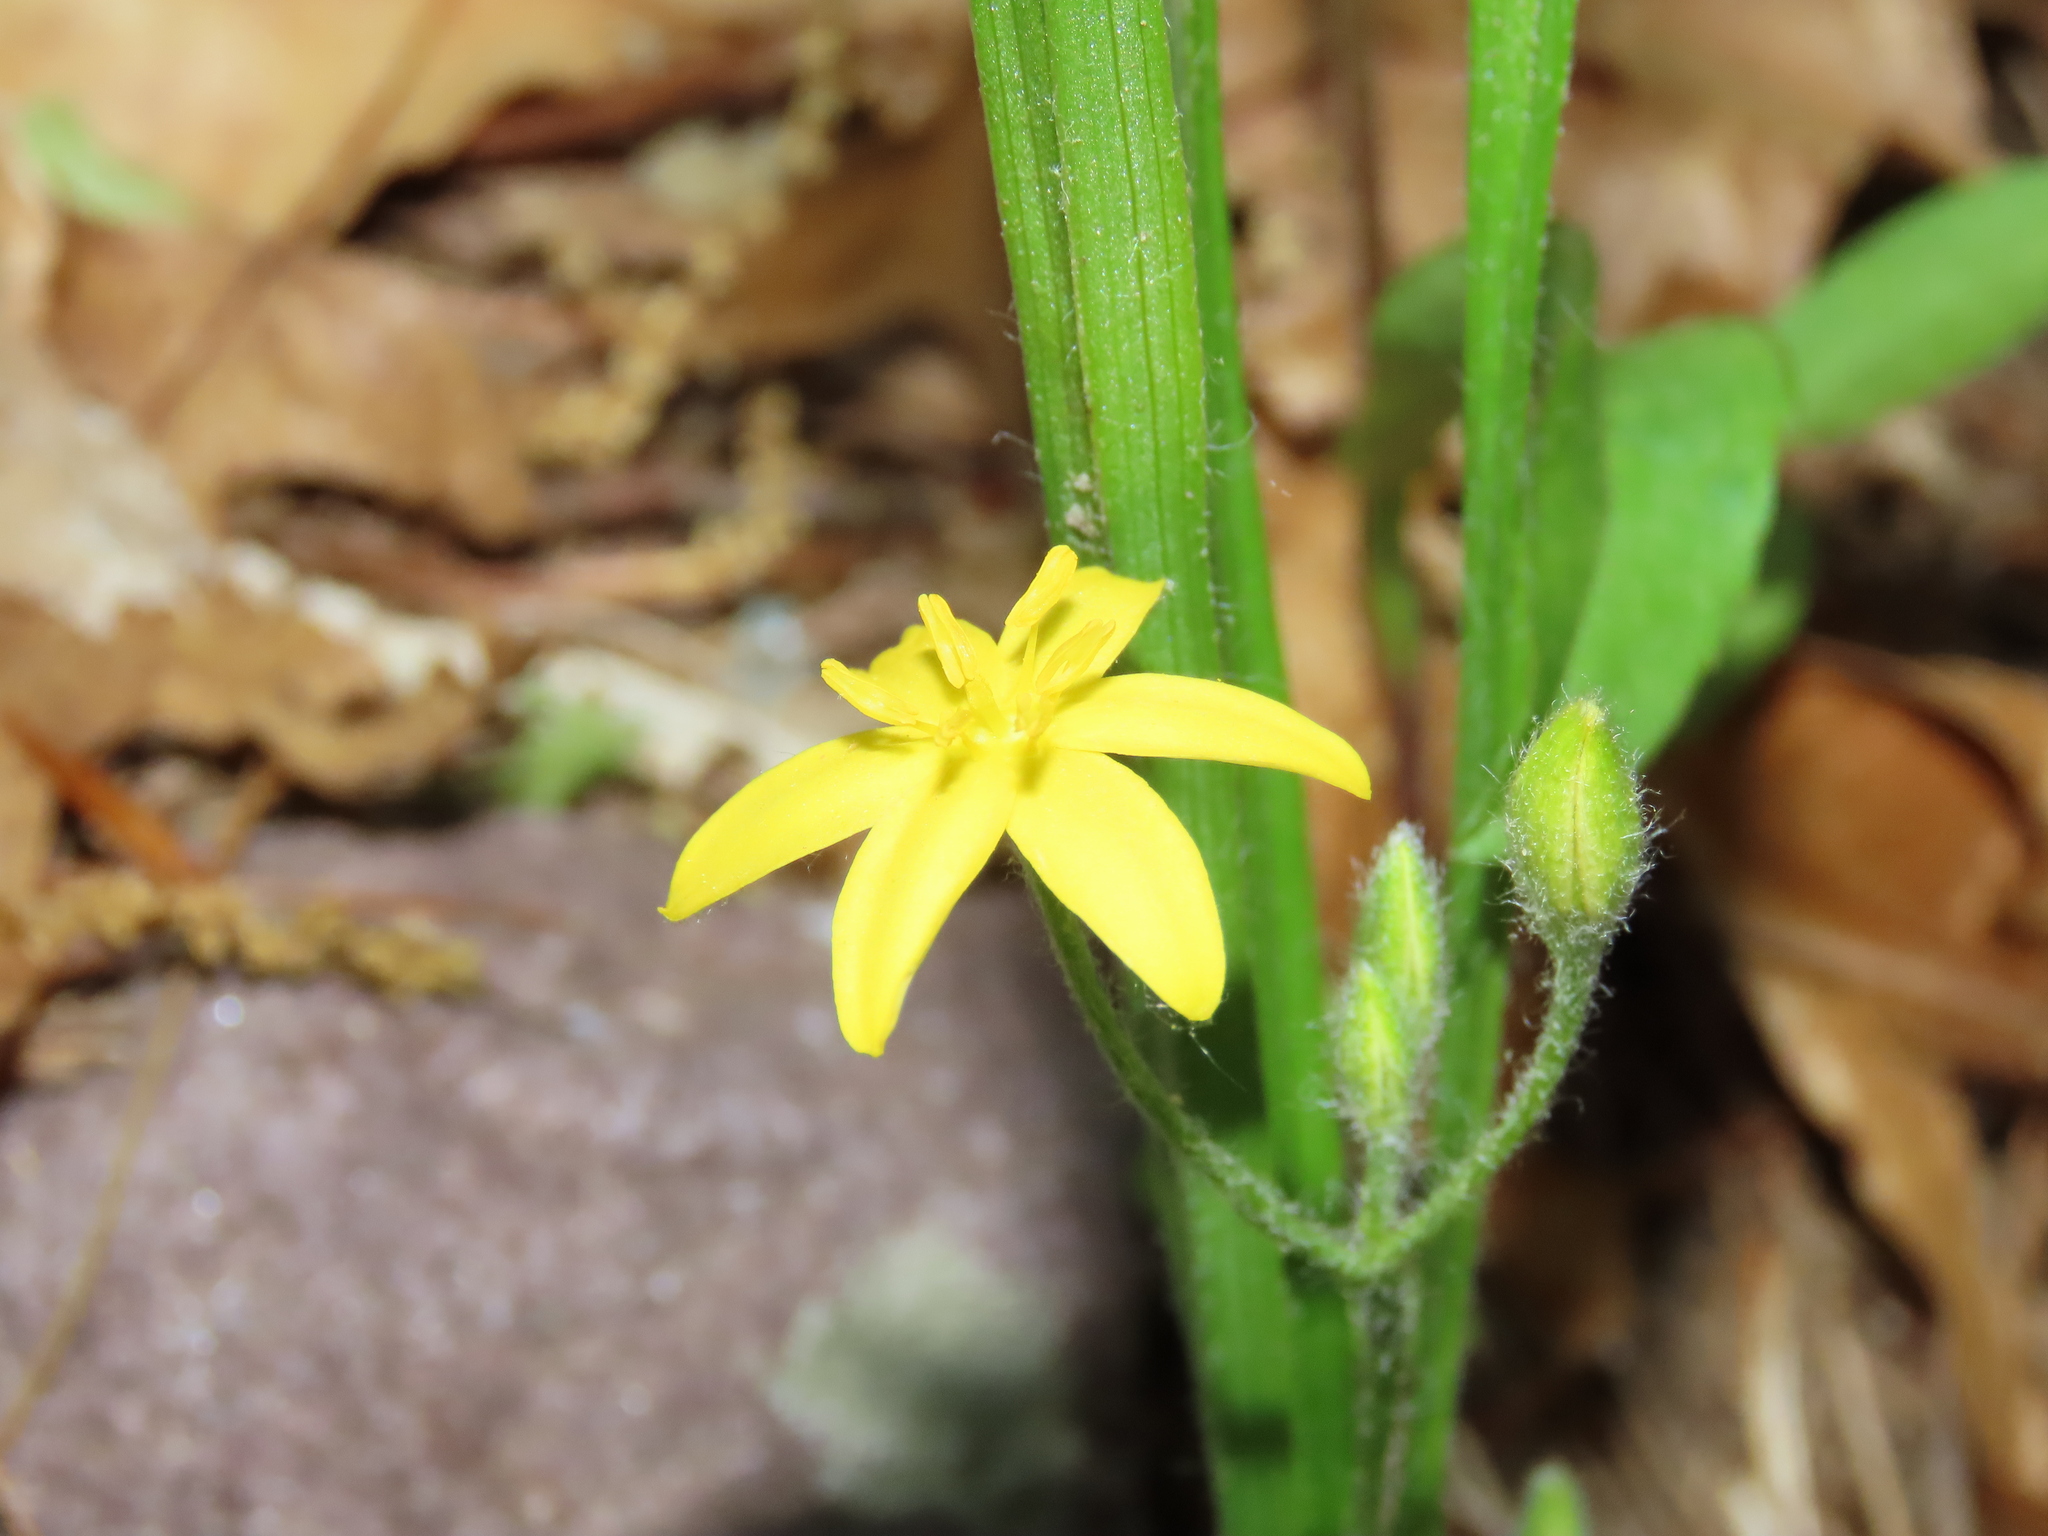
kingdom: Plantae
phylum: Tracheophyta
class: Liliopsida
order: Asparagales
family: Hypoxidaceae
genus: Hypoxis
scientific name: Hypoxis hirsuta
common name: Common goldstar
